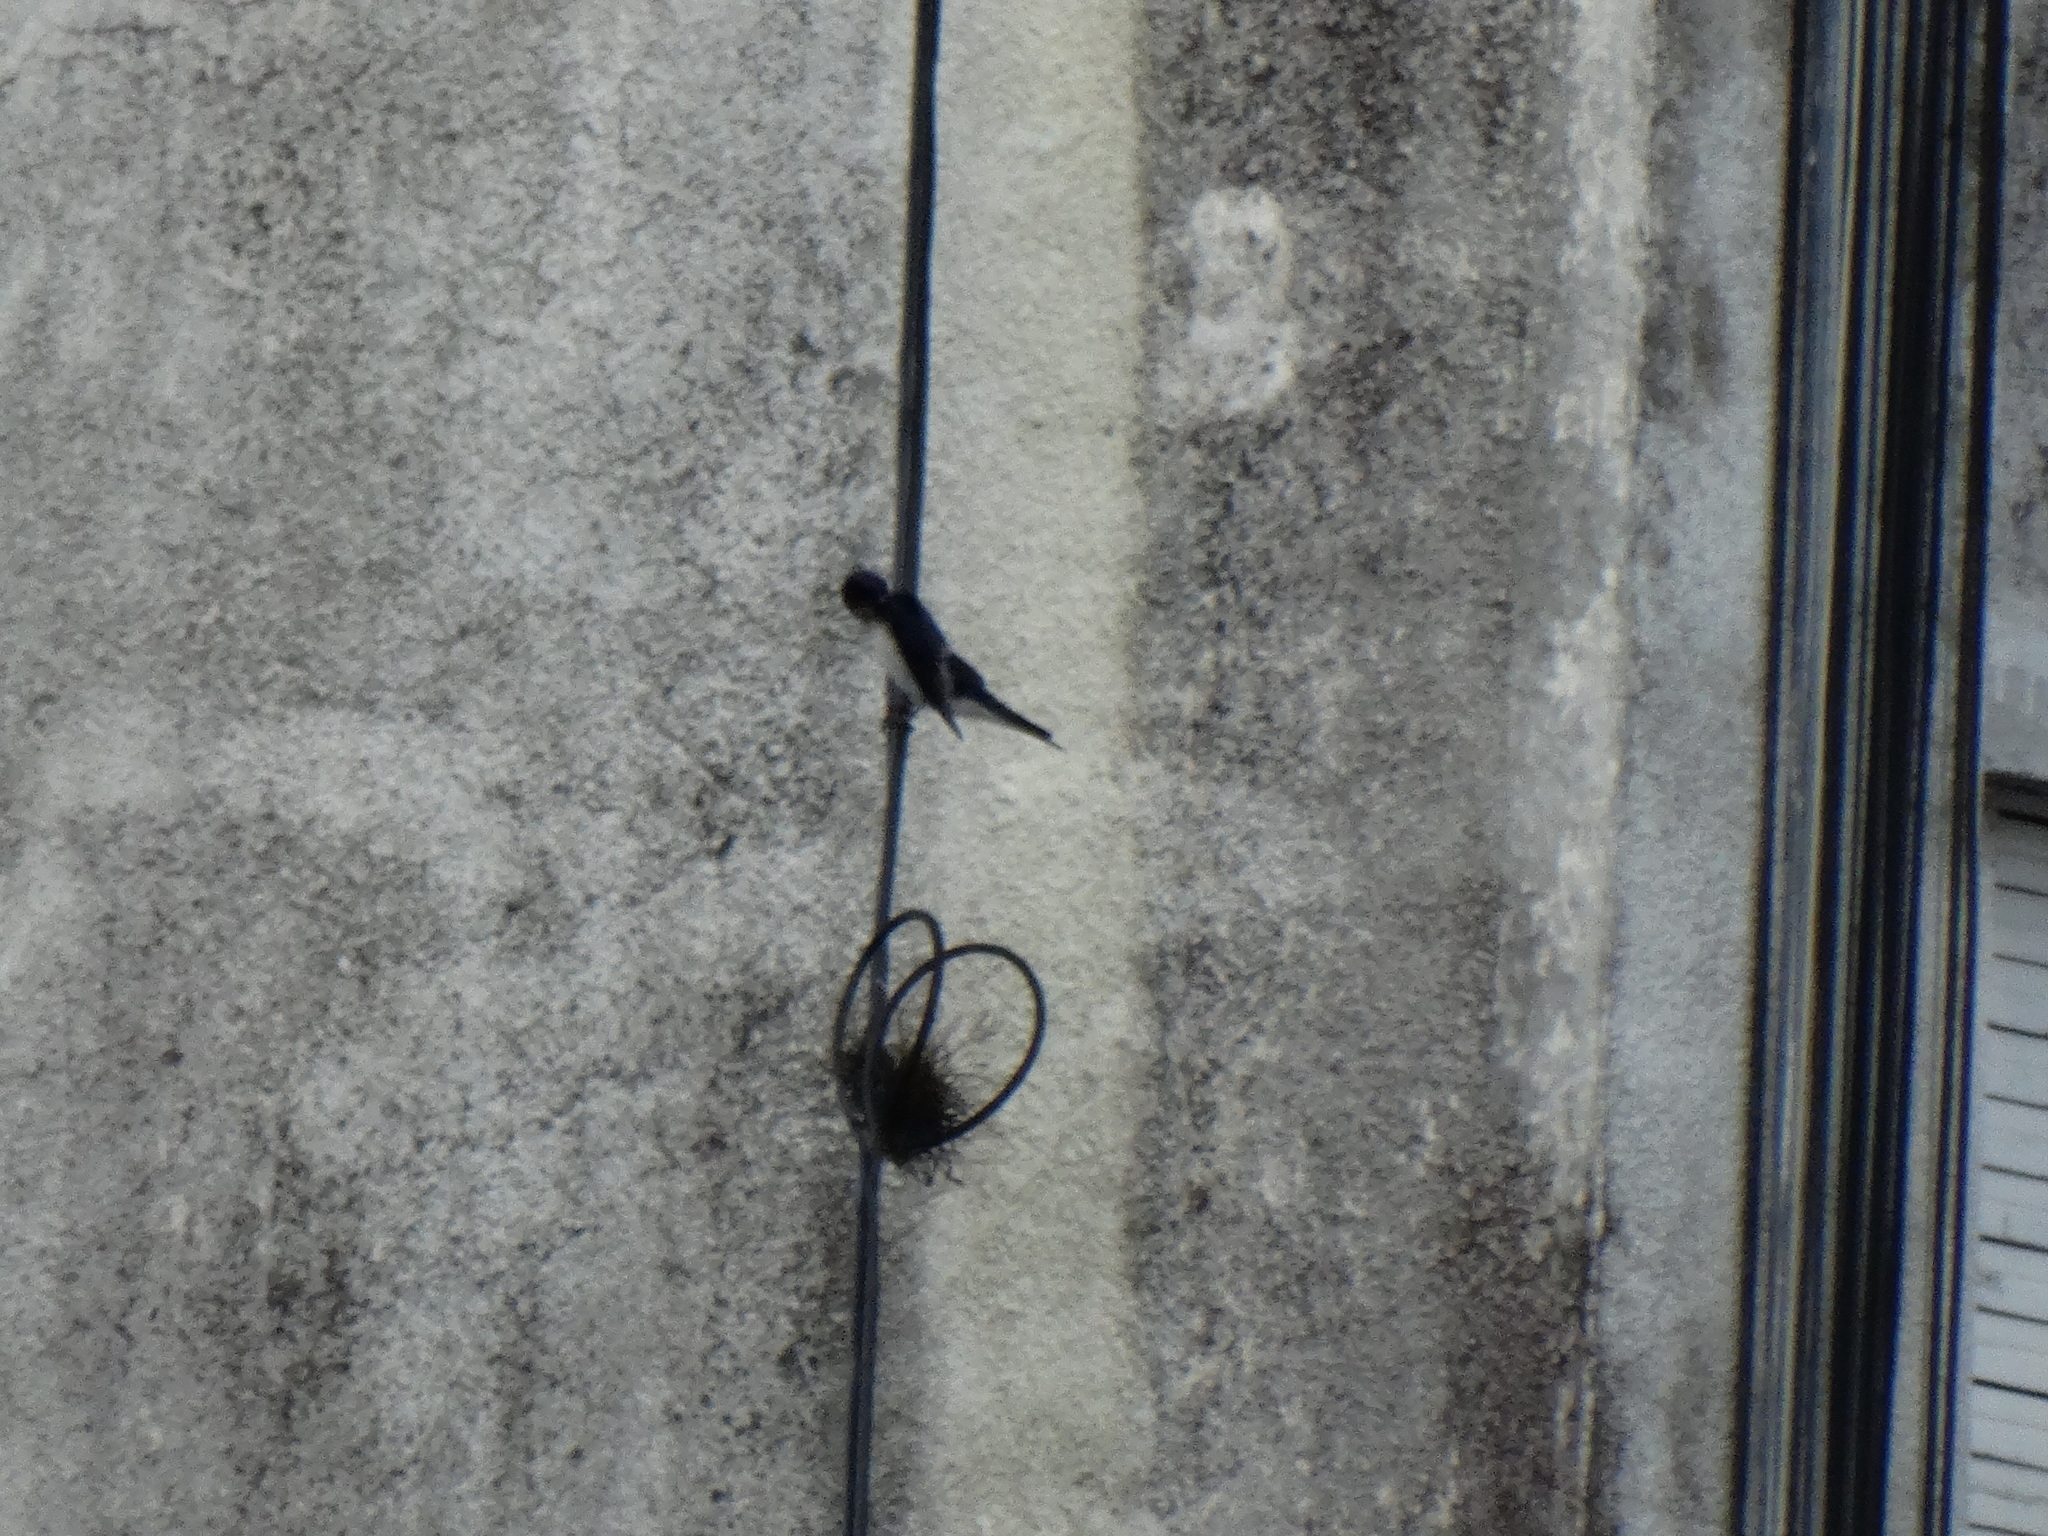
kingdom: Animalia
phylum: Chordata
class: Aves
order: Passeriformes
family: Hirundinidae
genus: Progne
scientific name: Progne chalybea
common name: Grey-breasted martin
